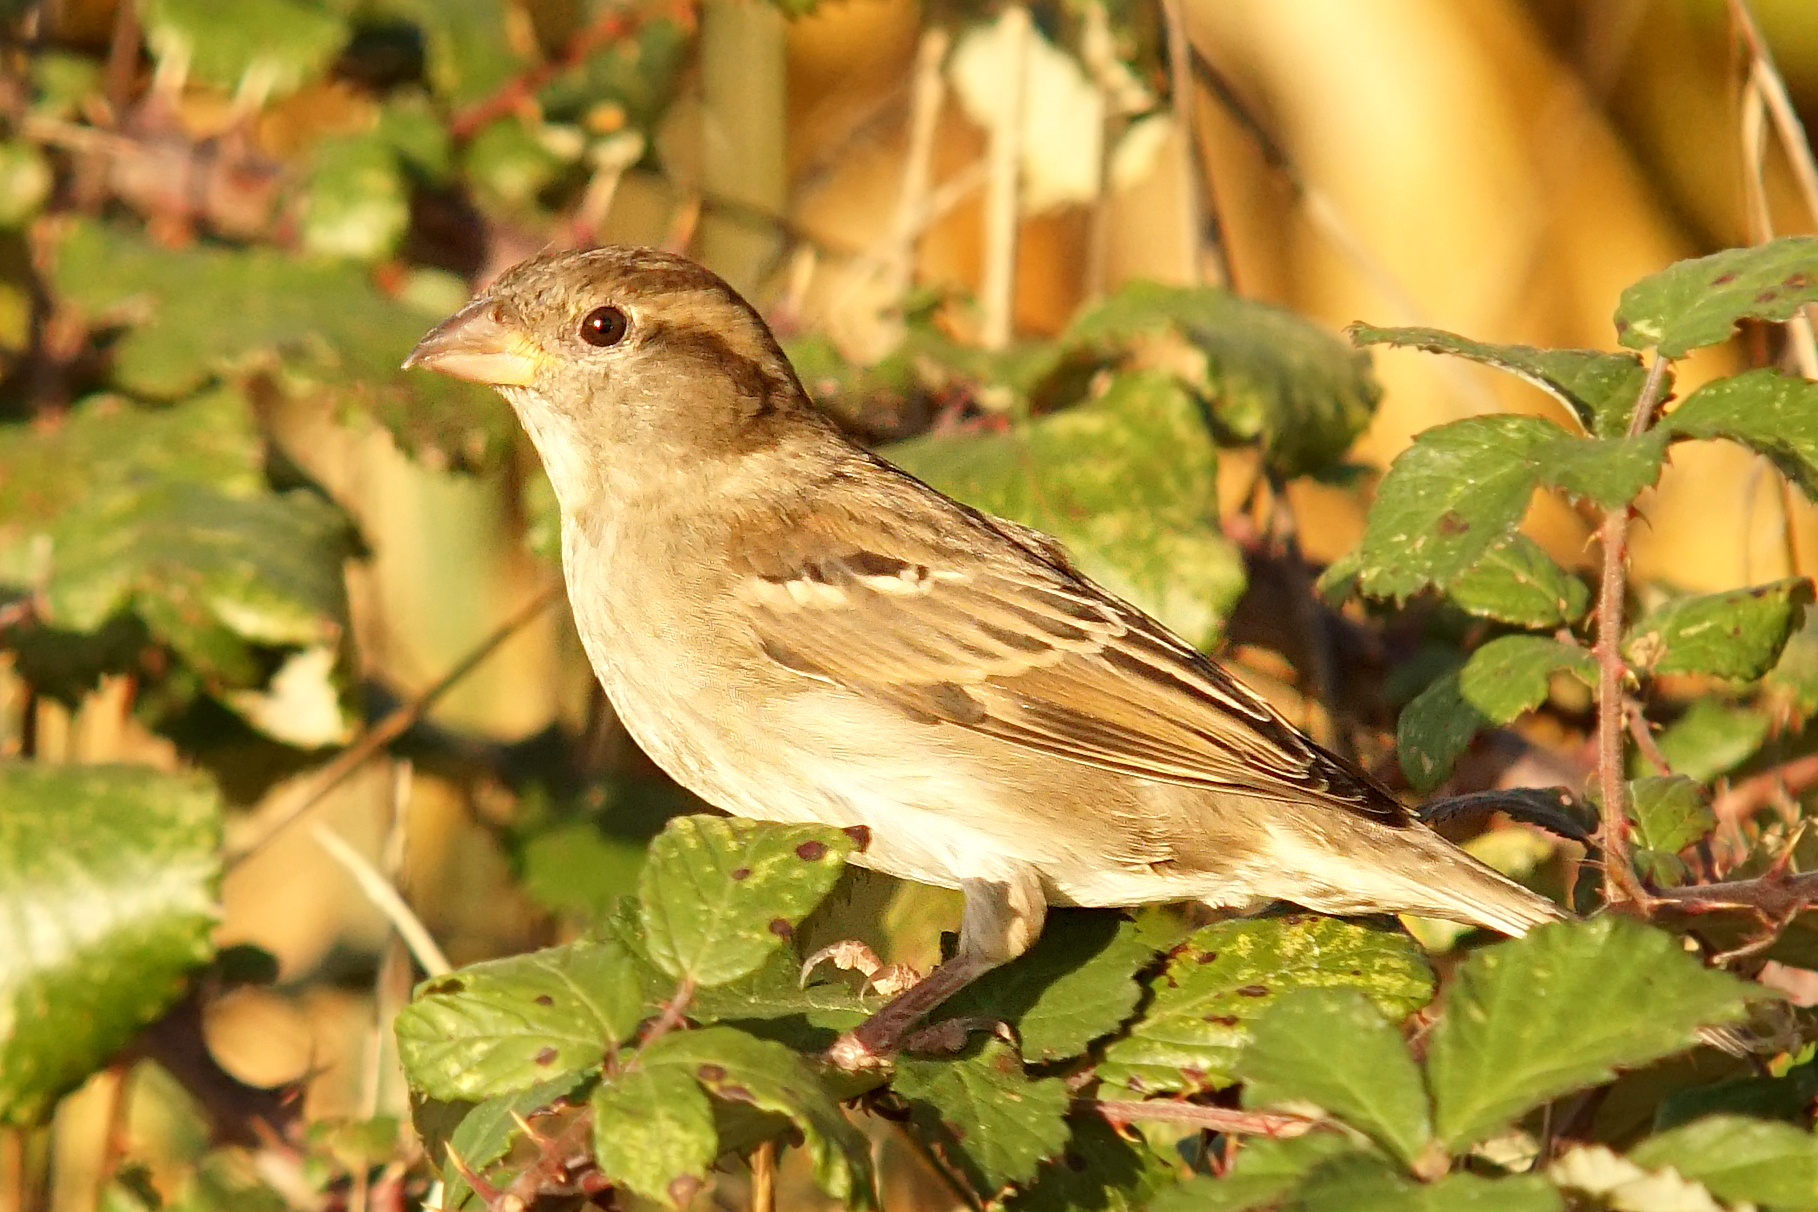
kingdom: Animalia
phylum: Chordata
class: Aves
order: Passeriformes
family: Passeridae
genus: Passer
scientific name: Passer domesticus
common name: House sparrow
